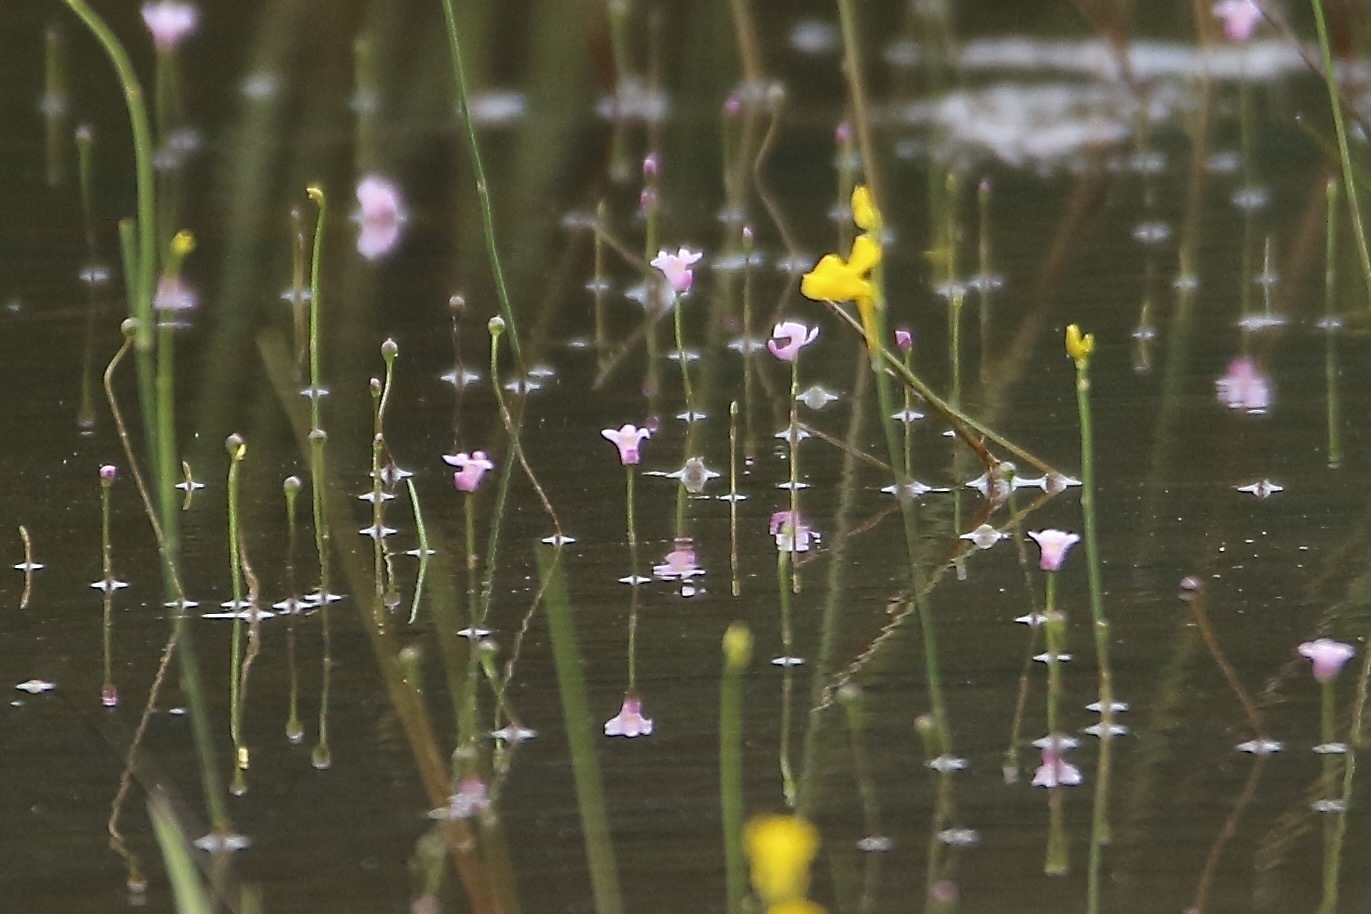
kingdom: Plantae
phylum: Tracheophyta
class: Magnoliopsida
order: Lamiales
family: Lentibulariaceae
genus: Utricularia
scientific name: Utricularia resupinata
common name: Northeastern bladderwort
